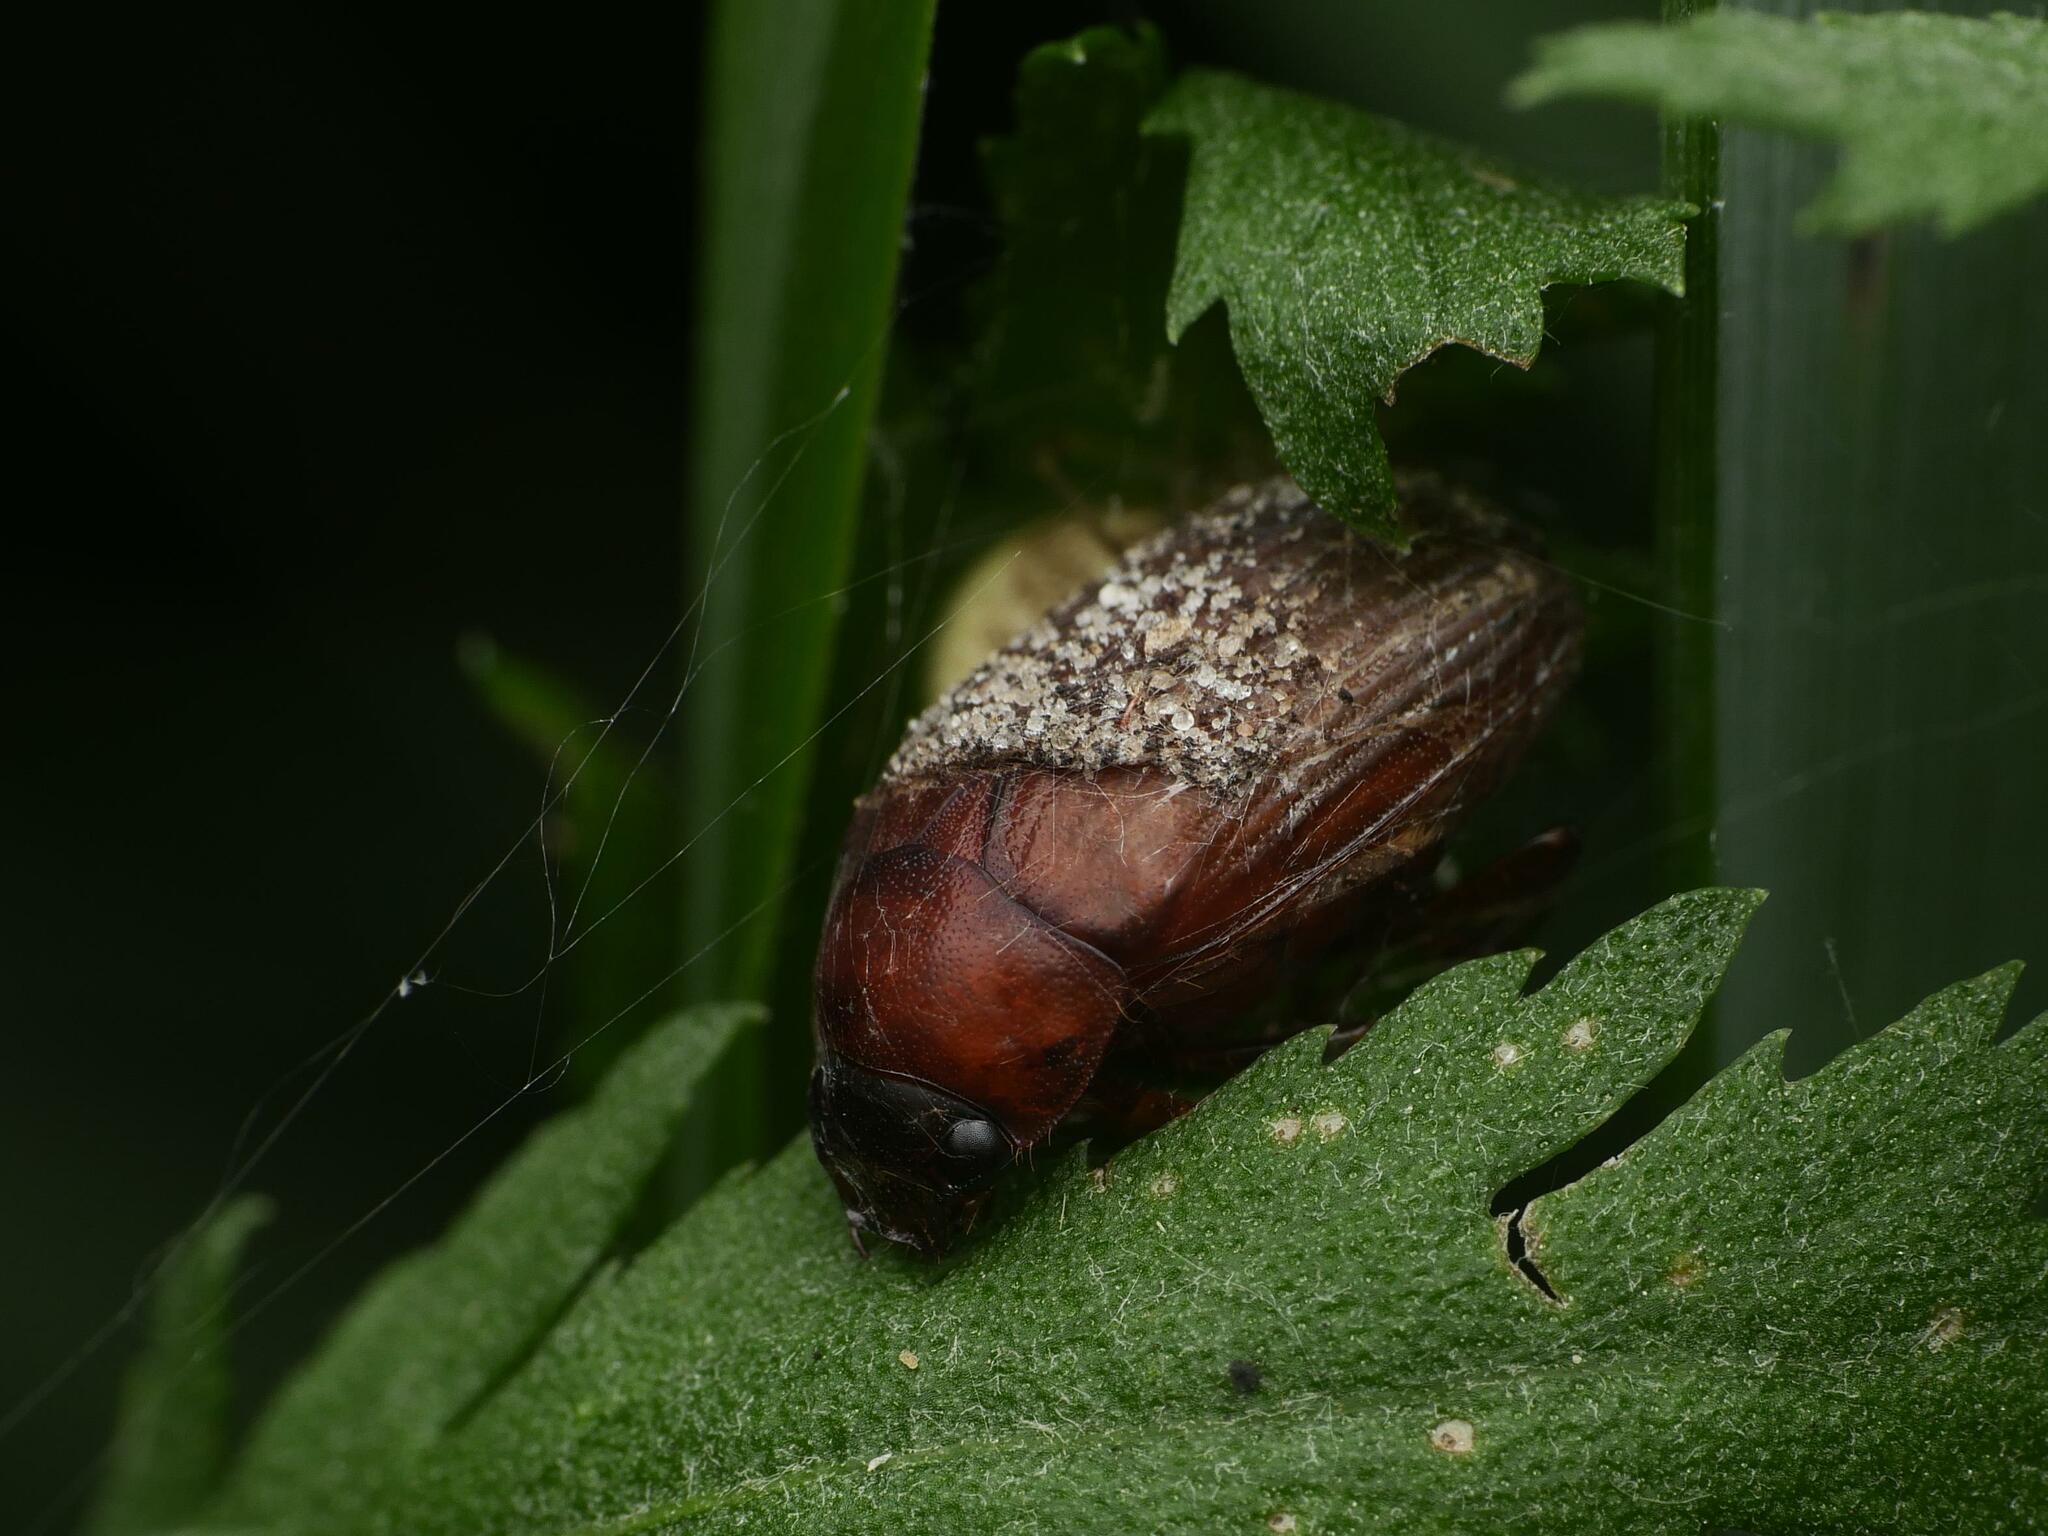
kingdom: Animalia
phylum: Arthropoda
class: Insecta
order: Coleoptera
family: Scarabaeidae
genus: Serica
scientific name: Serica brunnea
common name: Brown chafer
